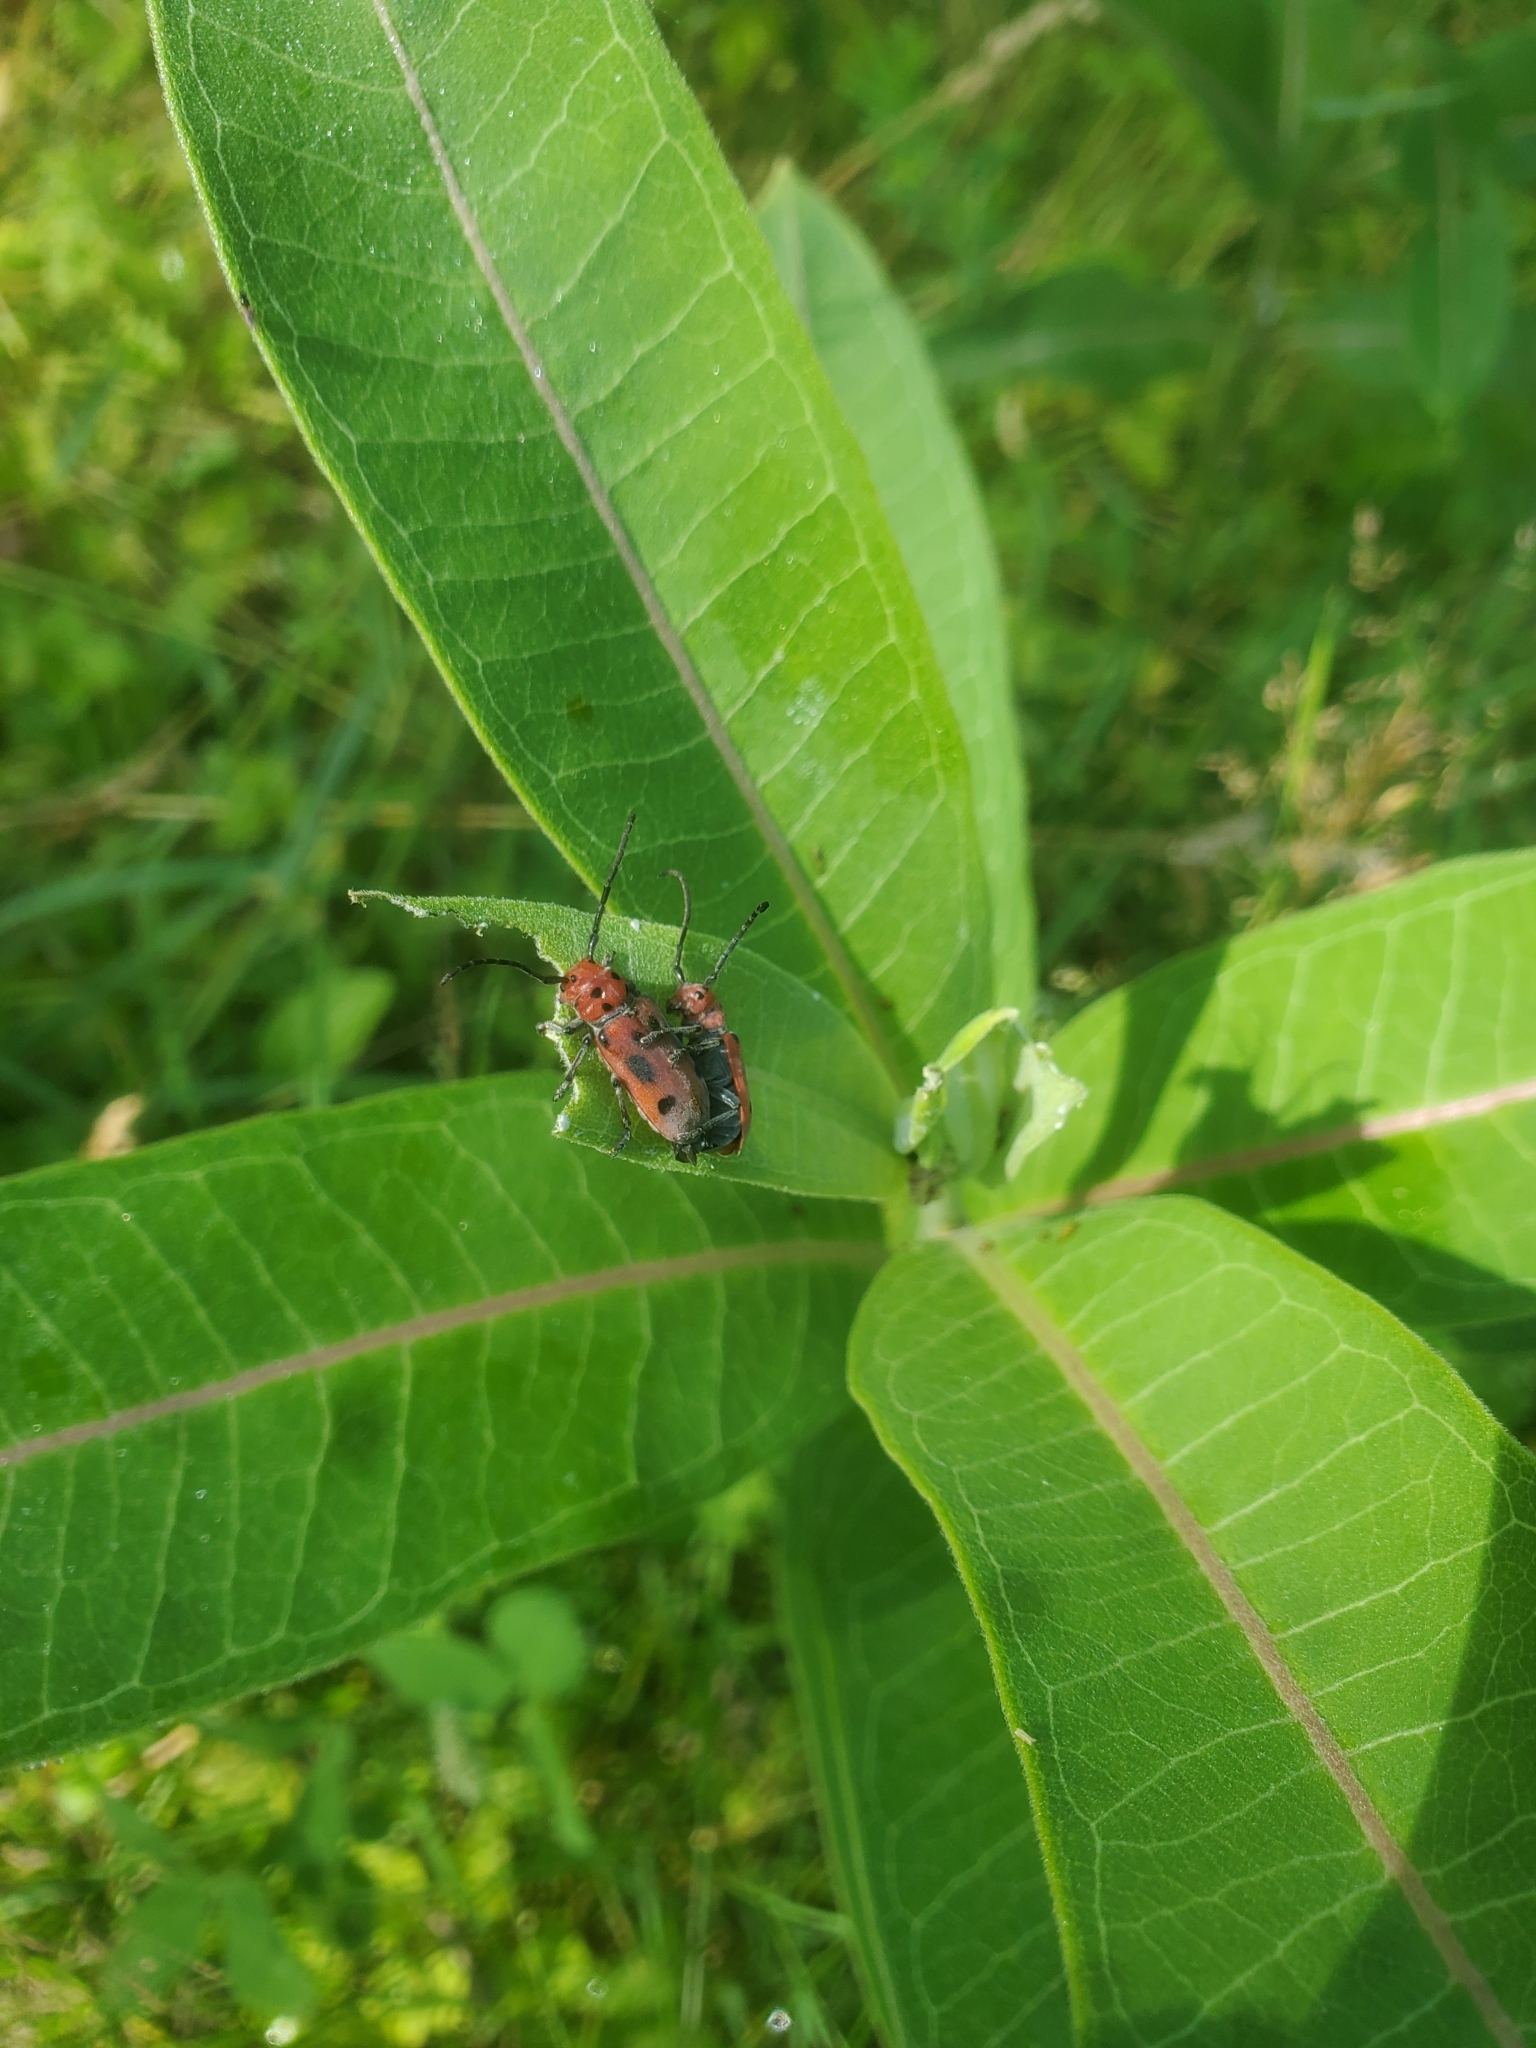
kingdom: Animalia
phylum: Arthropoda
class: Insecta
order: Coleoptera
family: Cerambycidae
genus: Tetraopes
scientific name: Tetraopes tetrophthalmus
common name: Red milkweed beetle
